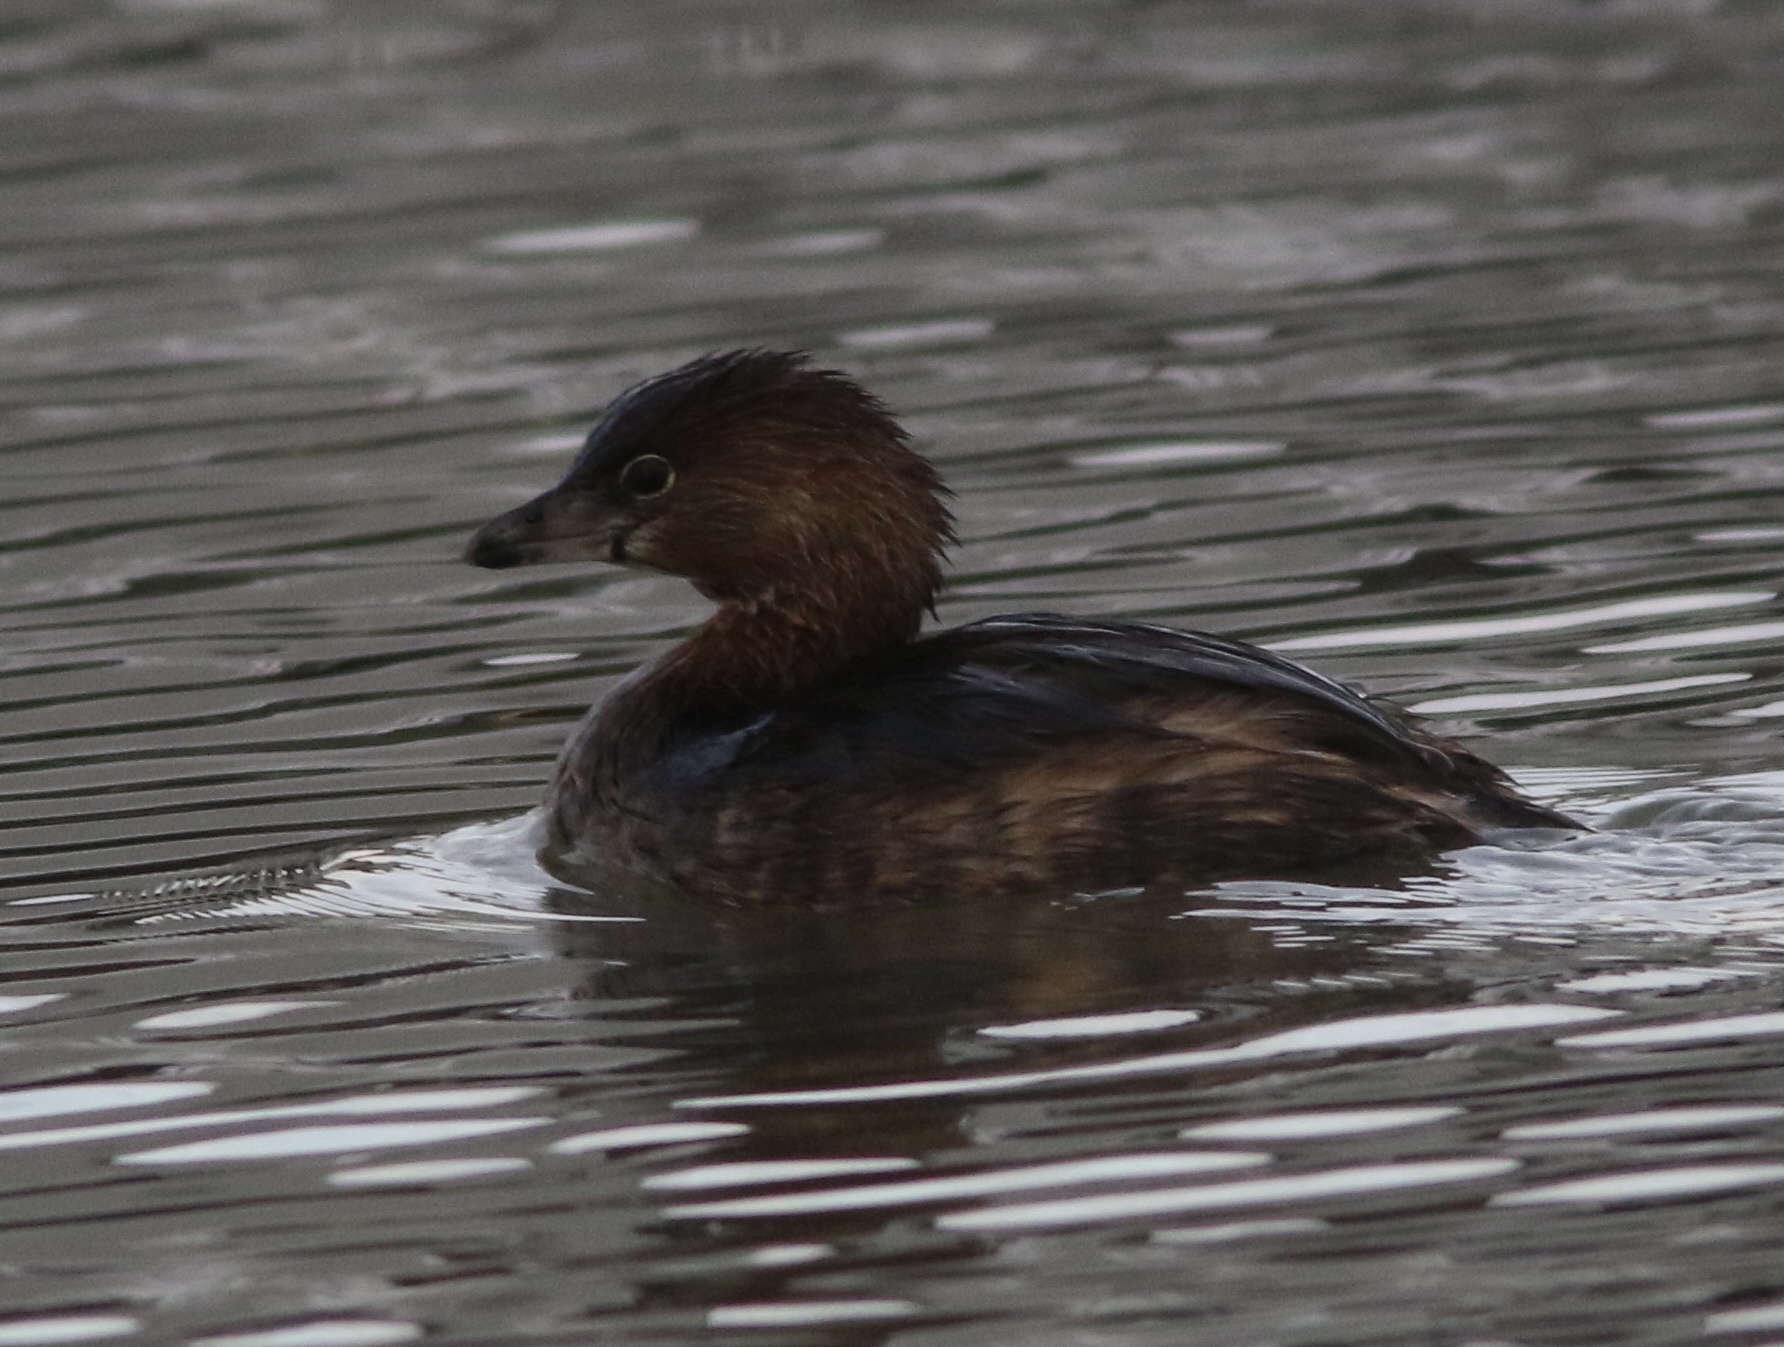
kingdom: Animalia
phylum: Chordata
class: Aves
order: Podicipediformes
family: Podicipedidae
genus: Podilymbus
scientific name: Podilymbus podiceps
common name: Pied-billed grebe
